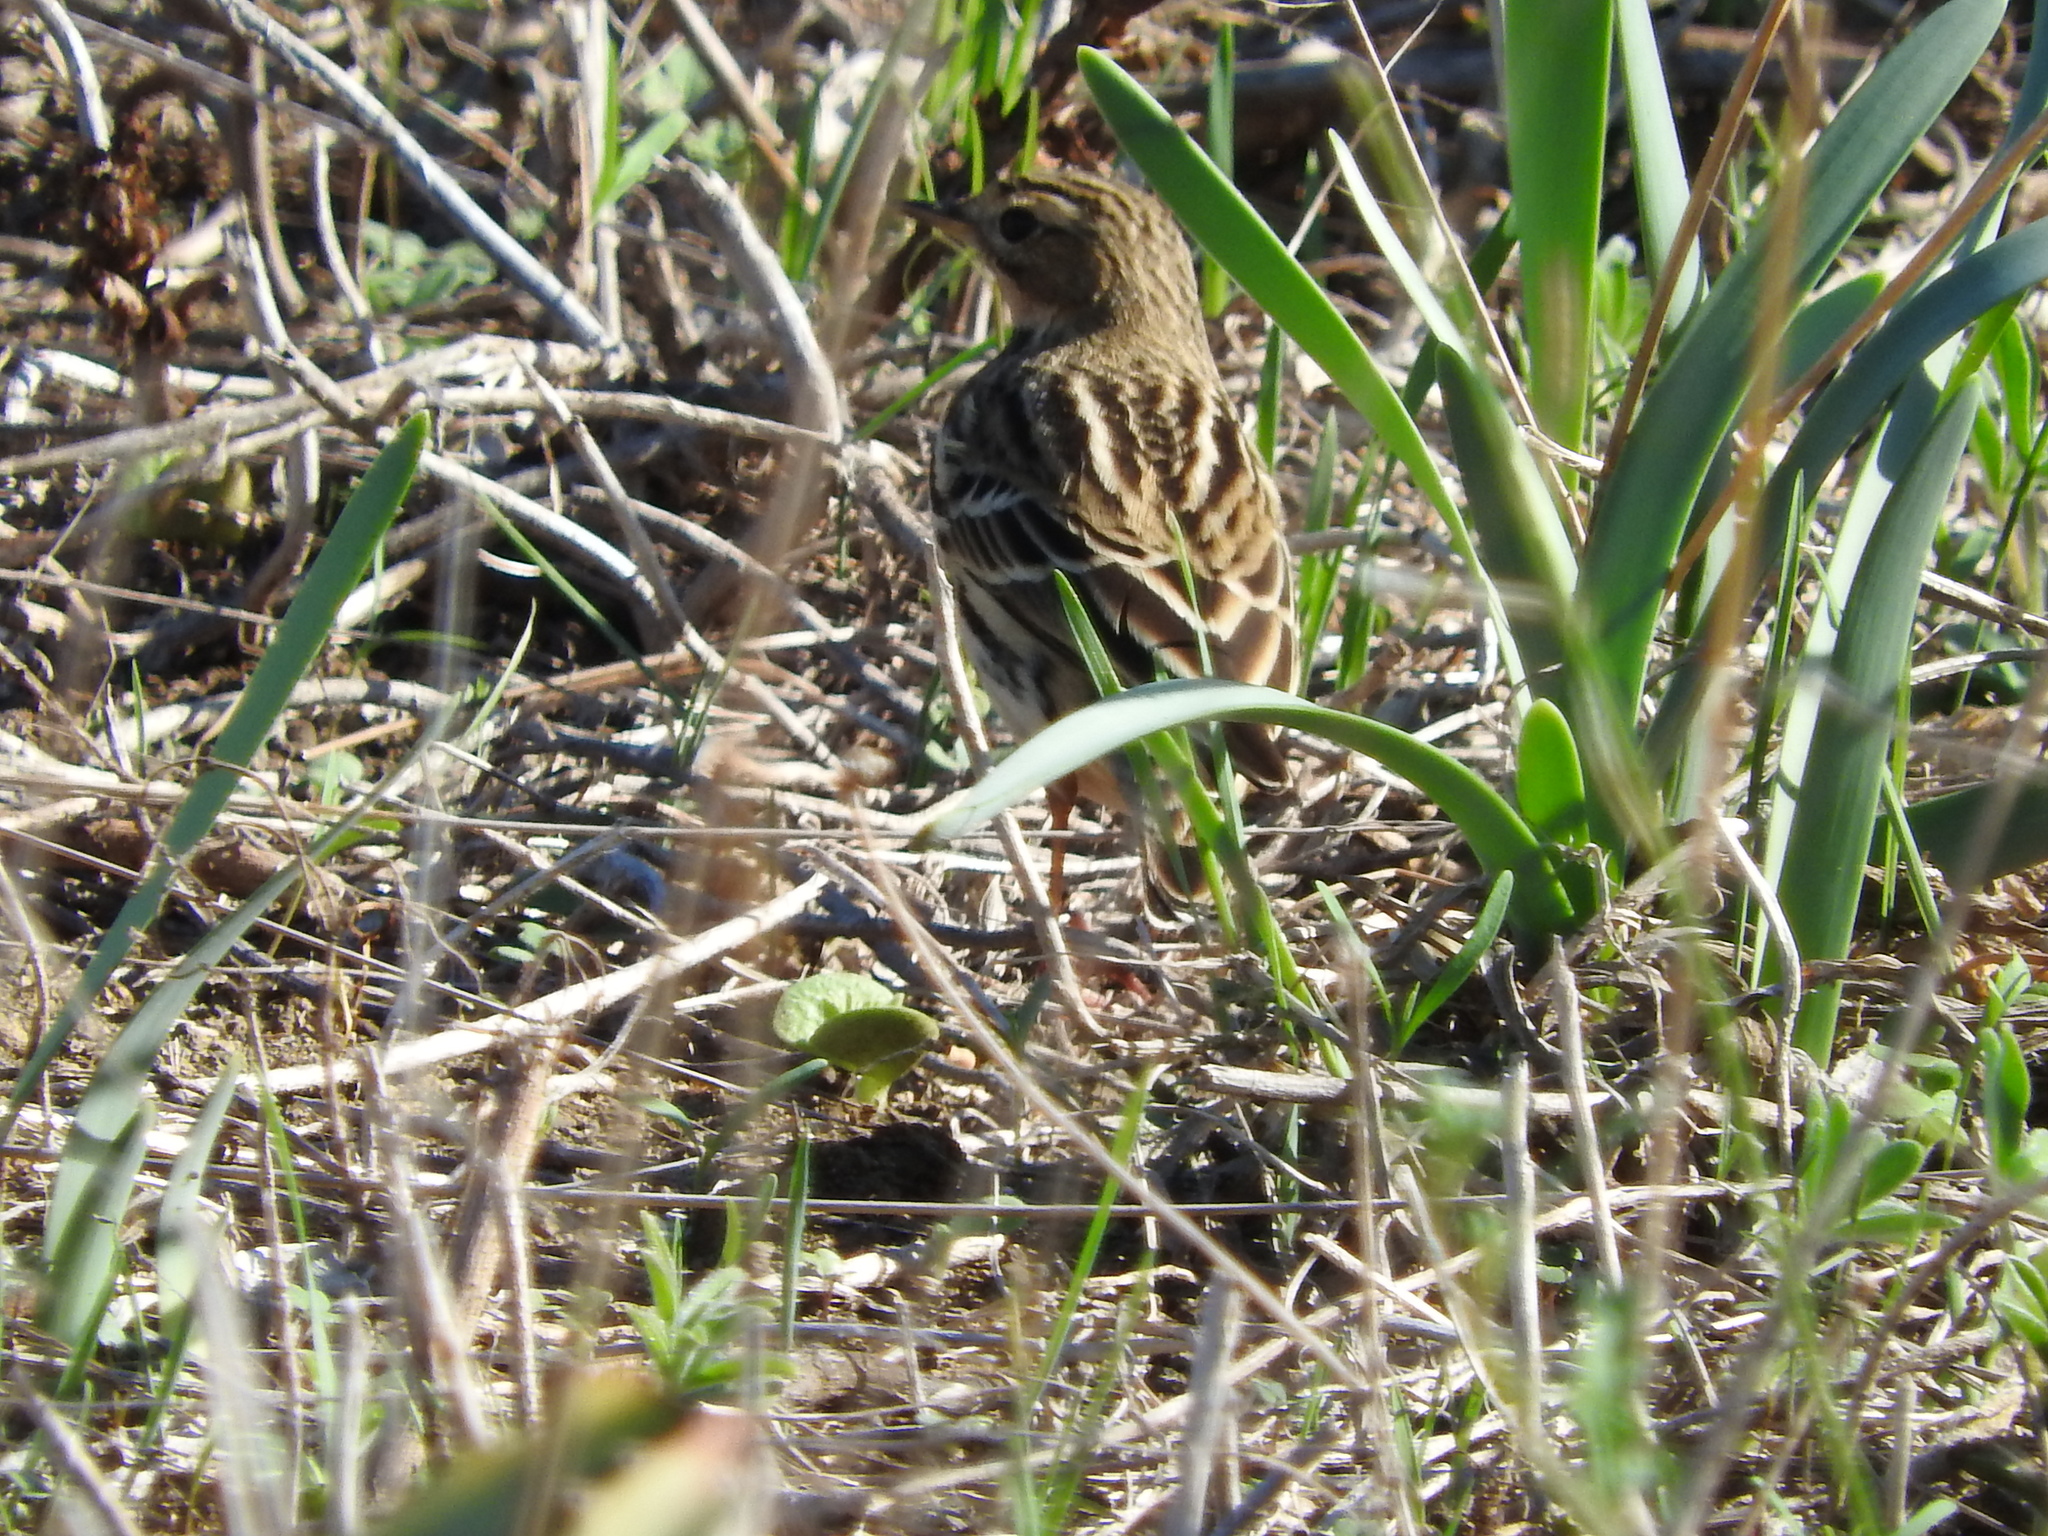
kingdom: Animalia
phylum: Chordata
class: Aves
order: Passeriformes
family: Motacillidae
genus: Anthus
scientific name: Anthus cervinus
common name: Red-throated pipit
